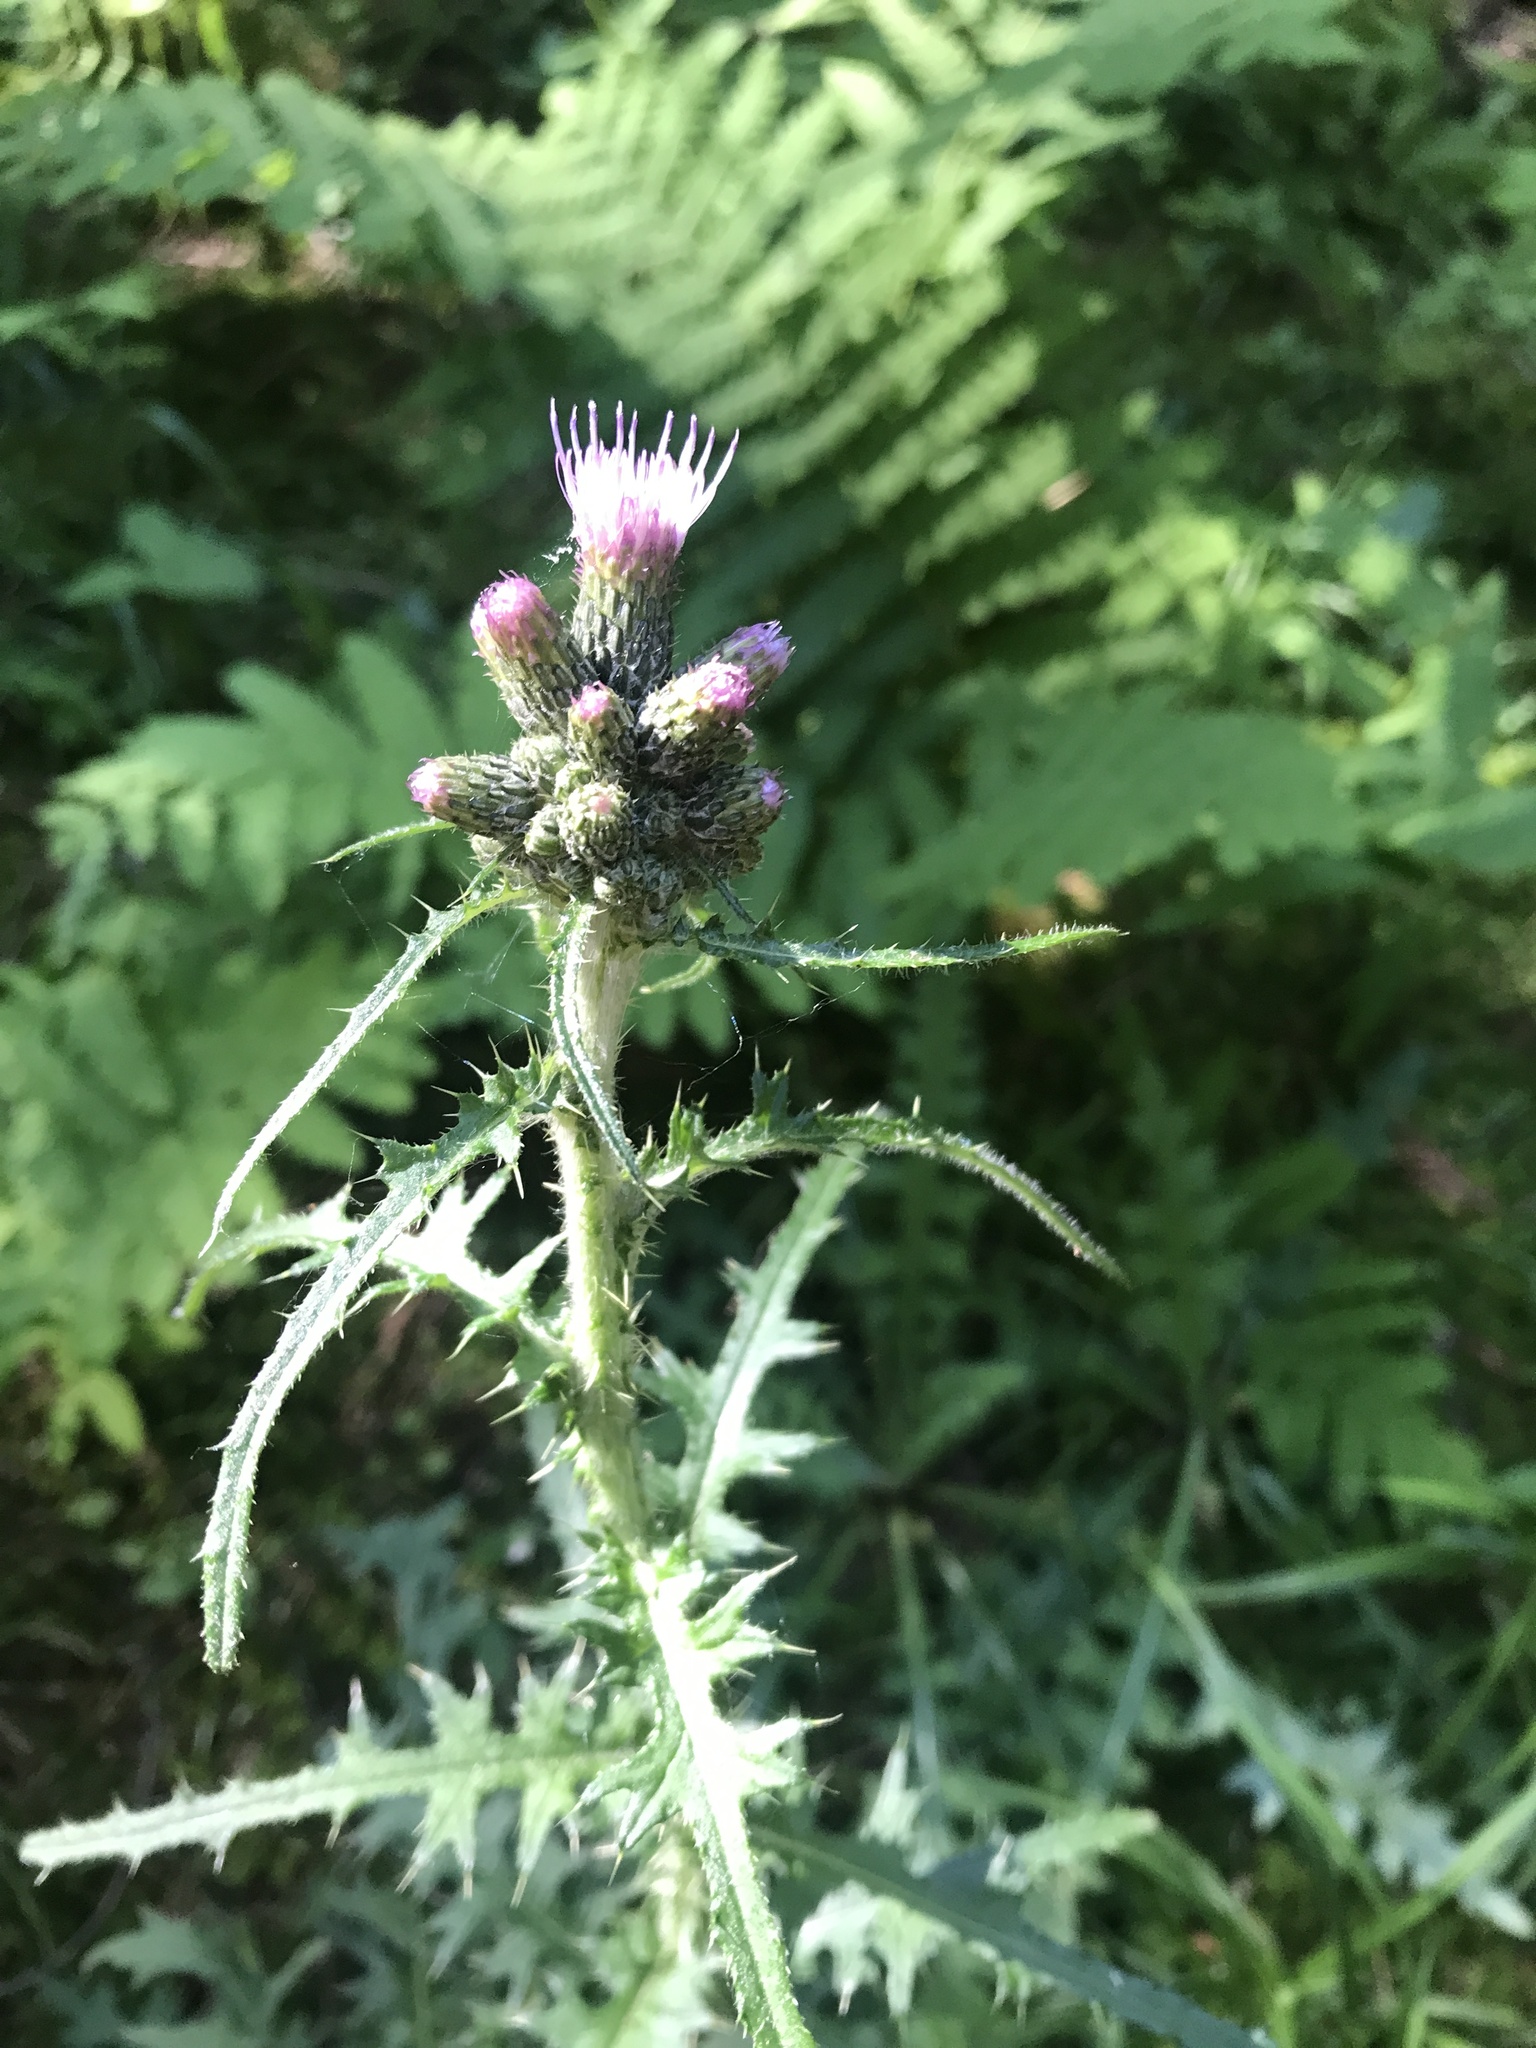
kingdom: Plantae
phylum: Tracheophyta
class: Magnoliopsida
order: Asterales
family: Asteraceae
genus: Cirsium
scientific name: Cirsium palustre
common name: Marsh thistle
